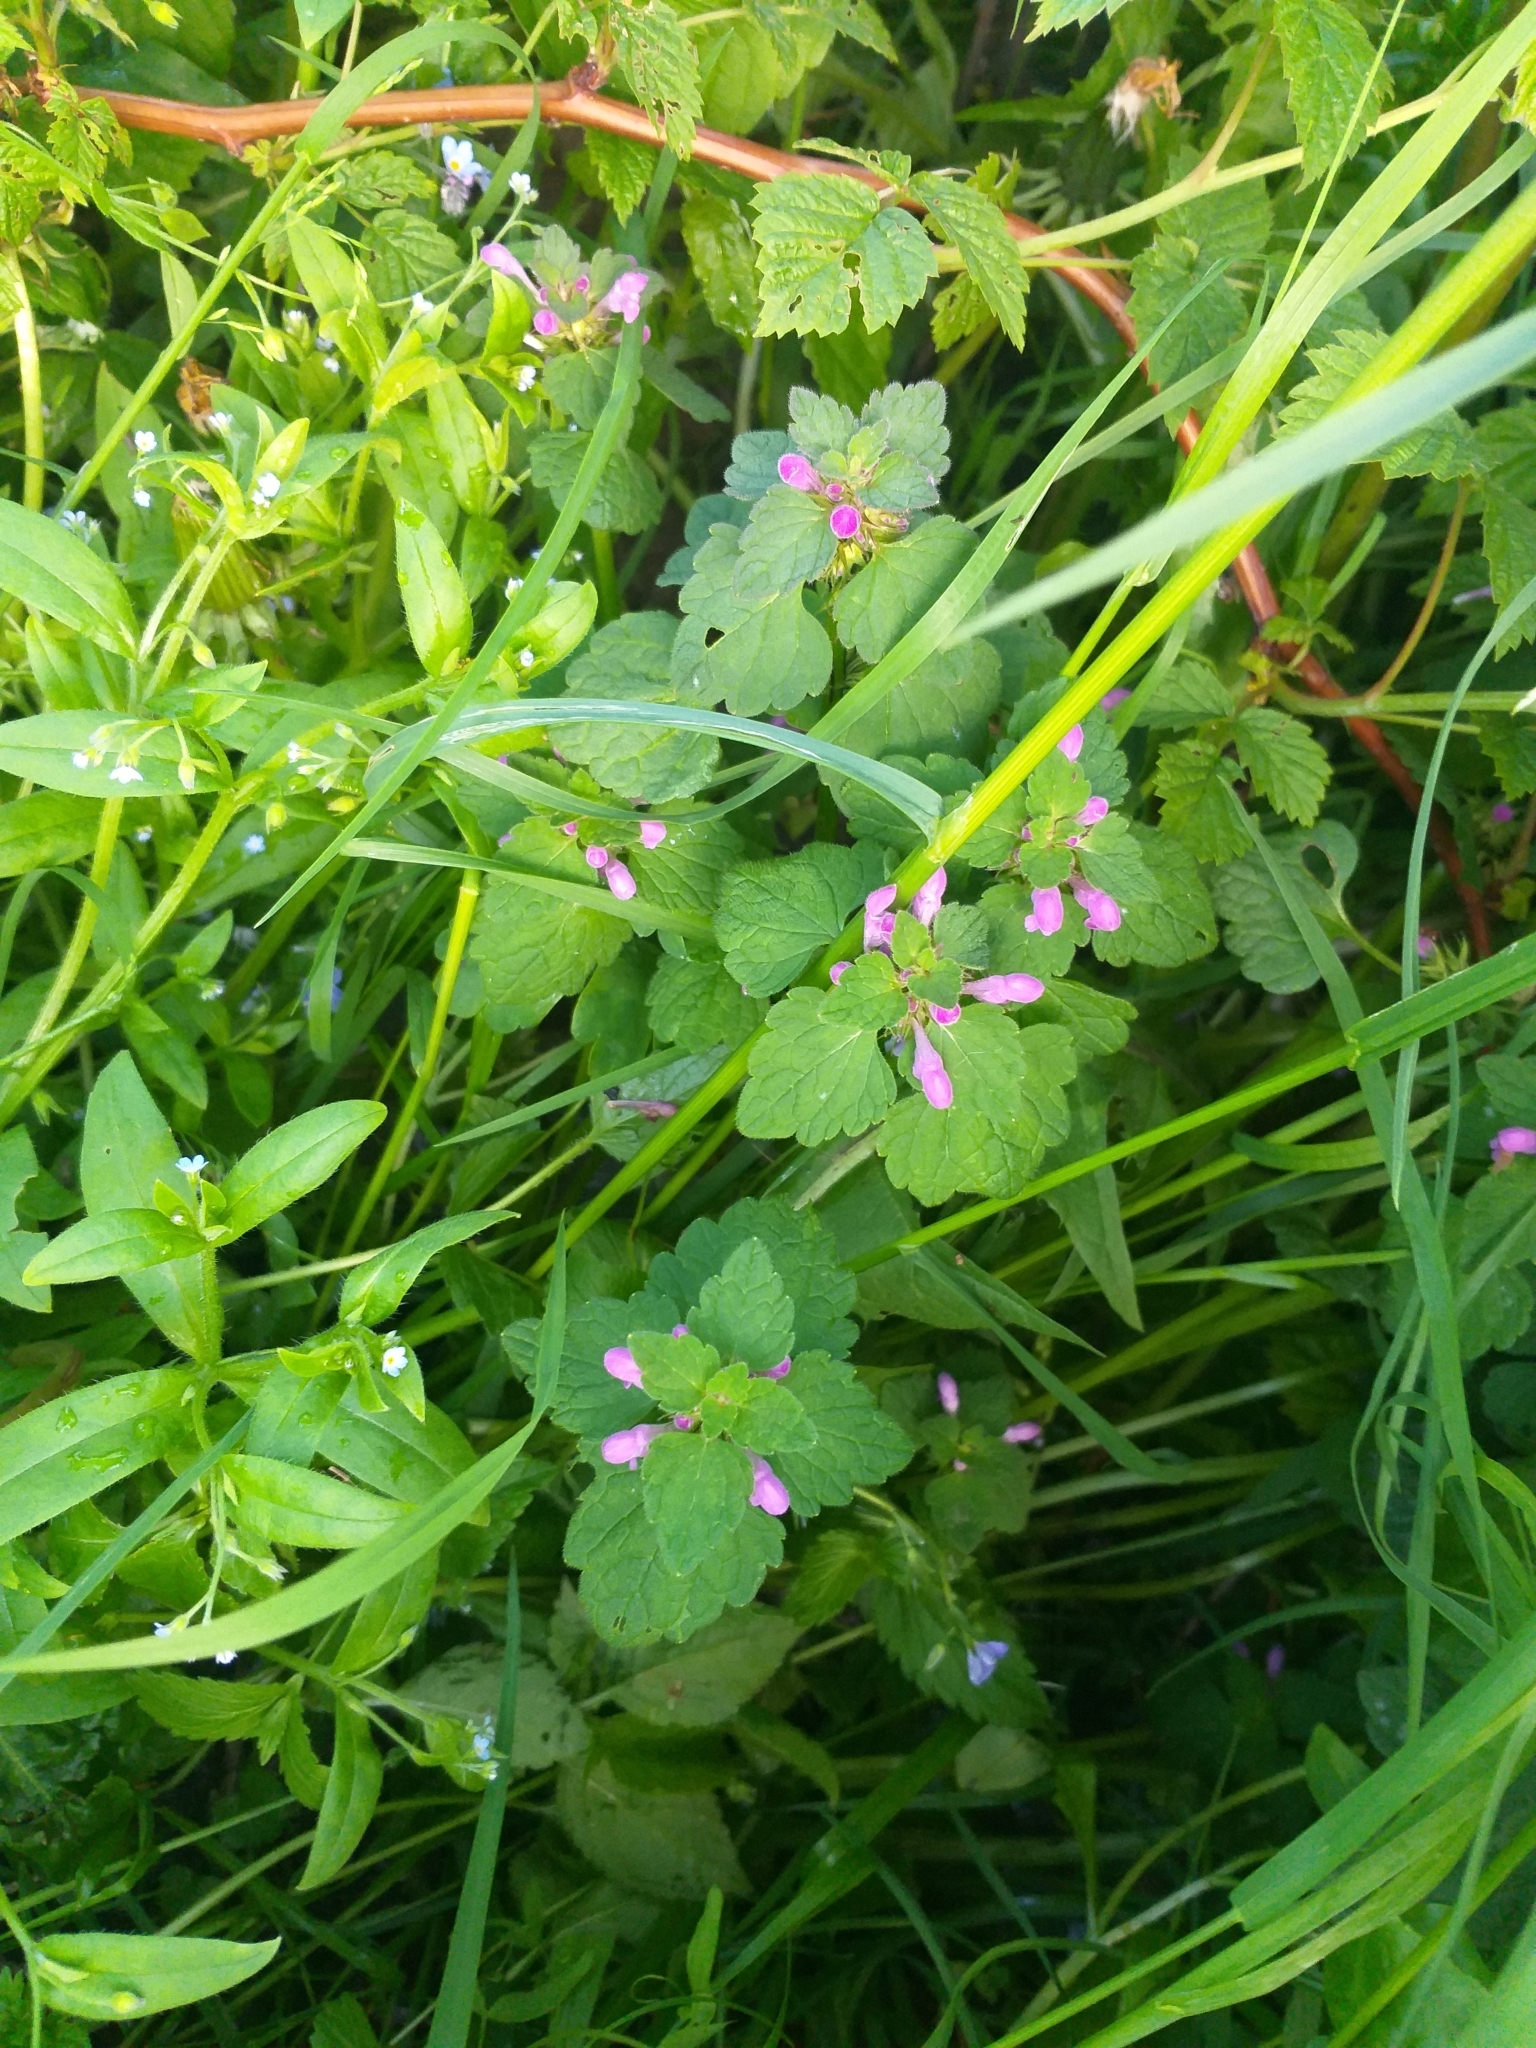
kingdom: Plantae
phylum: Tracheophyta
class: Magnoliopsida
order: Lamiales
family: Lamiaceae
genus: Lamium
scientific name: Lamium purpureum
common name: Red dead-nettle
